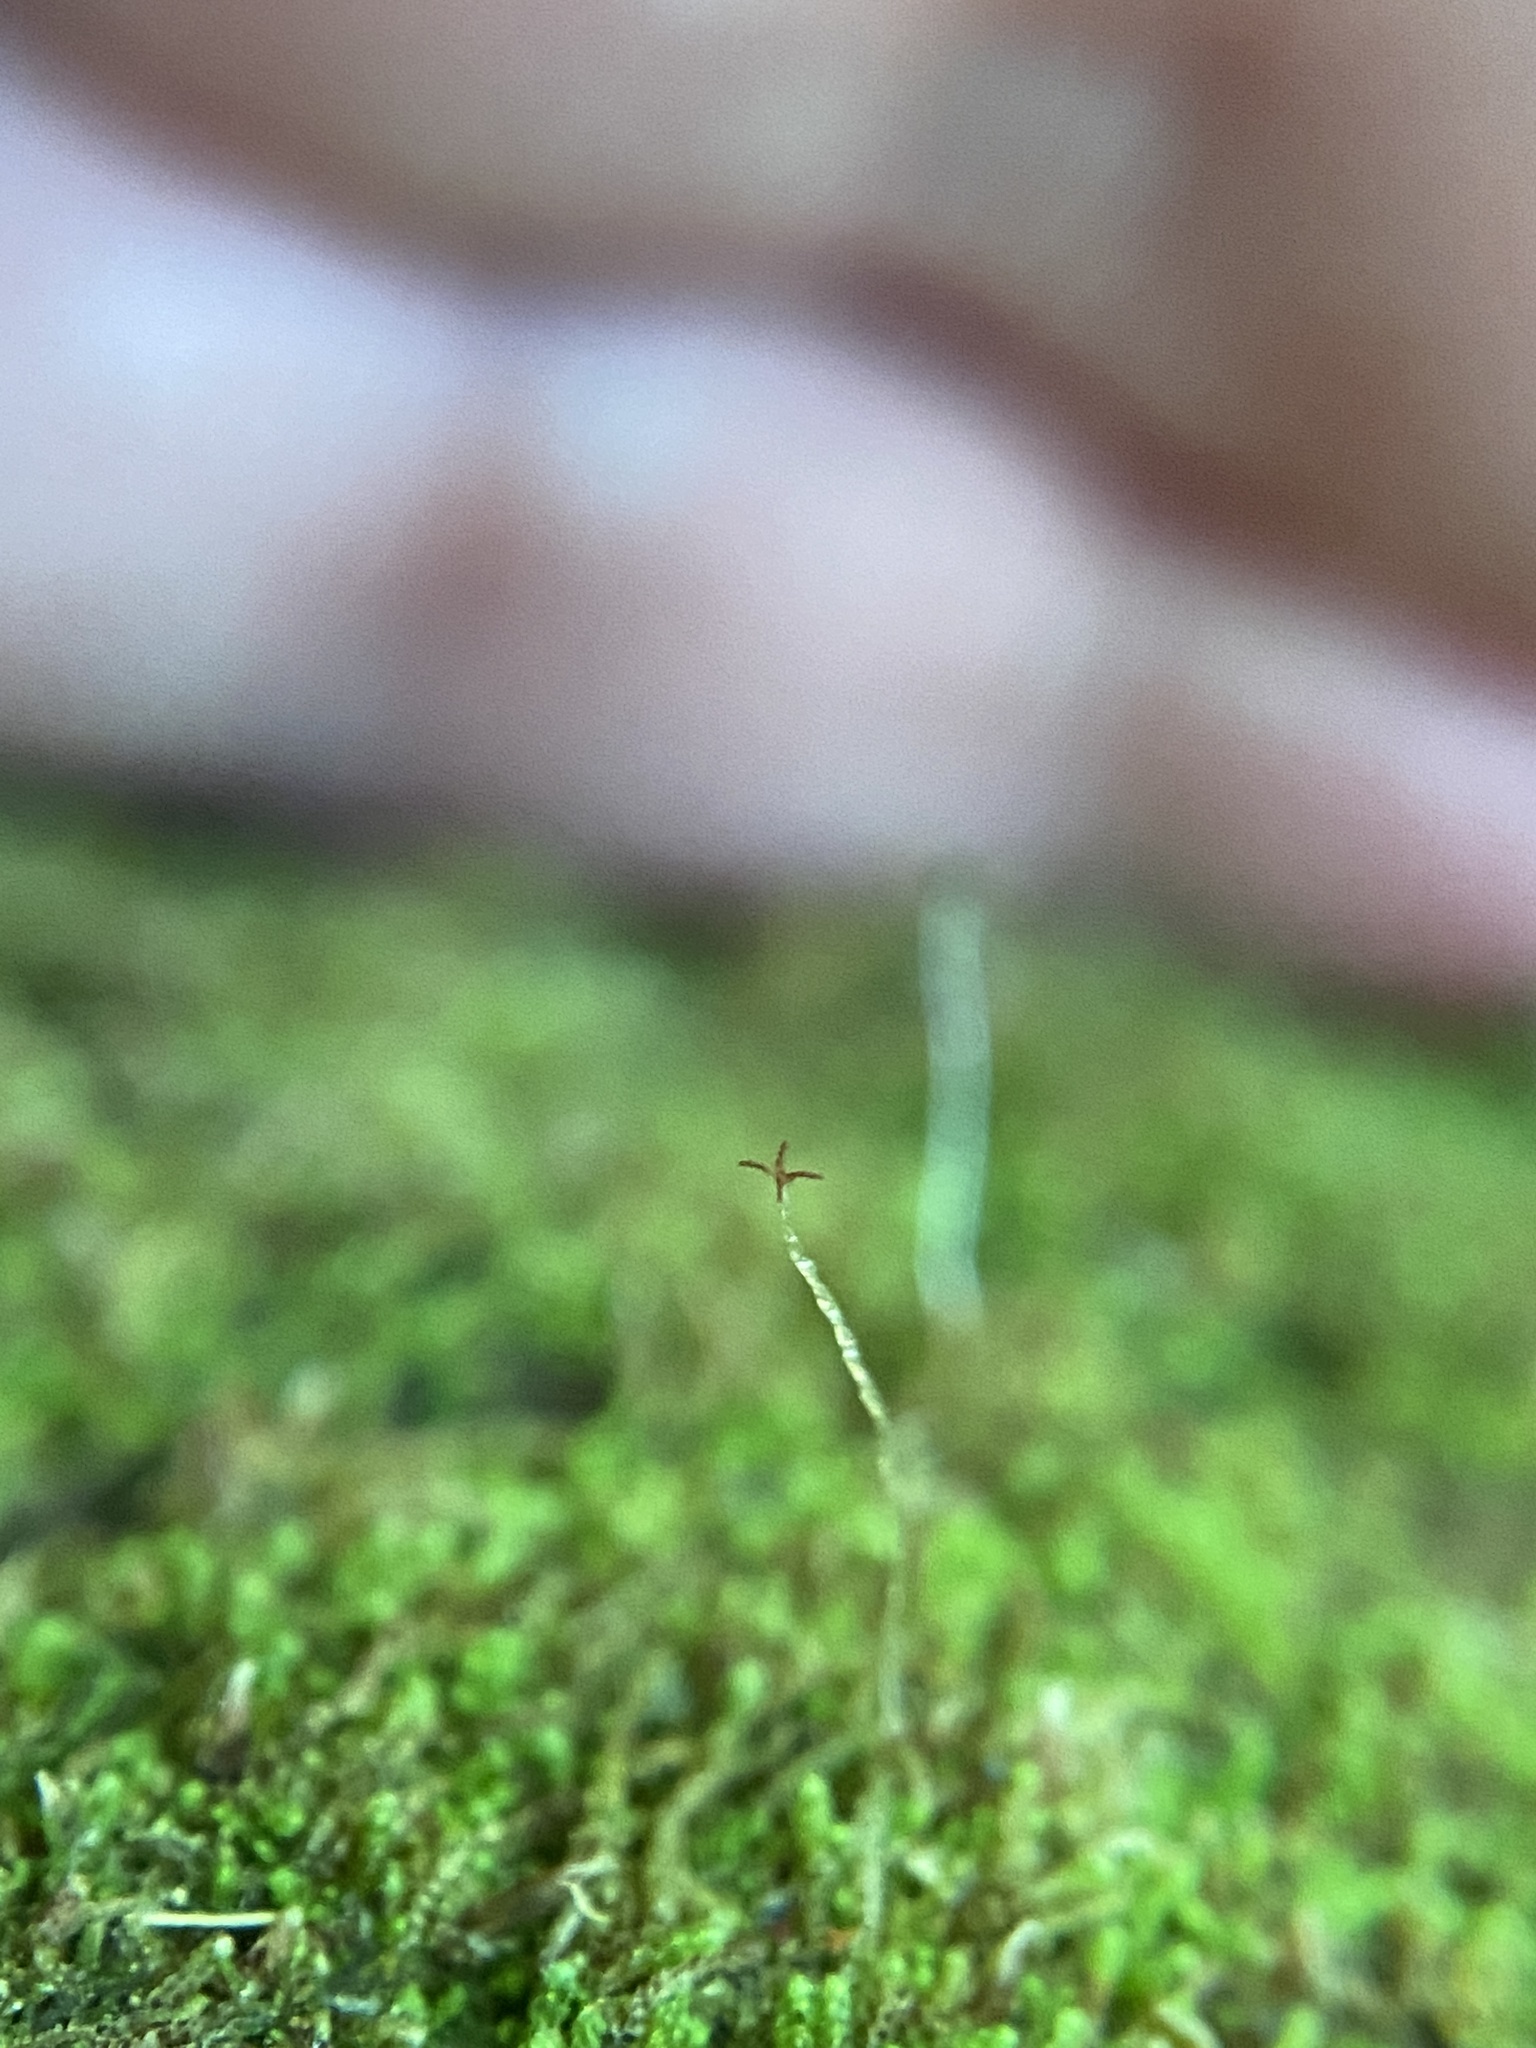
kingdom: Plantae
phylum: Marchantiophyta
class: Jungermanniopsida
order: Jungermanniales
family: Cephaloziaceae
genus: Nowellia
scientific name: Nowellia curvifolia
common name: Wood rustwort
